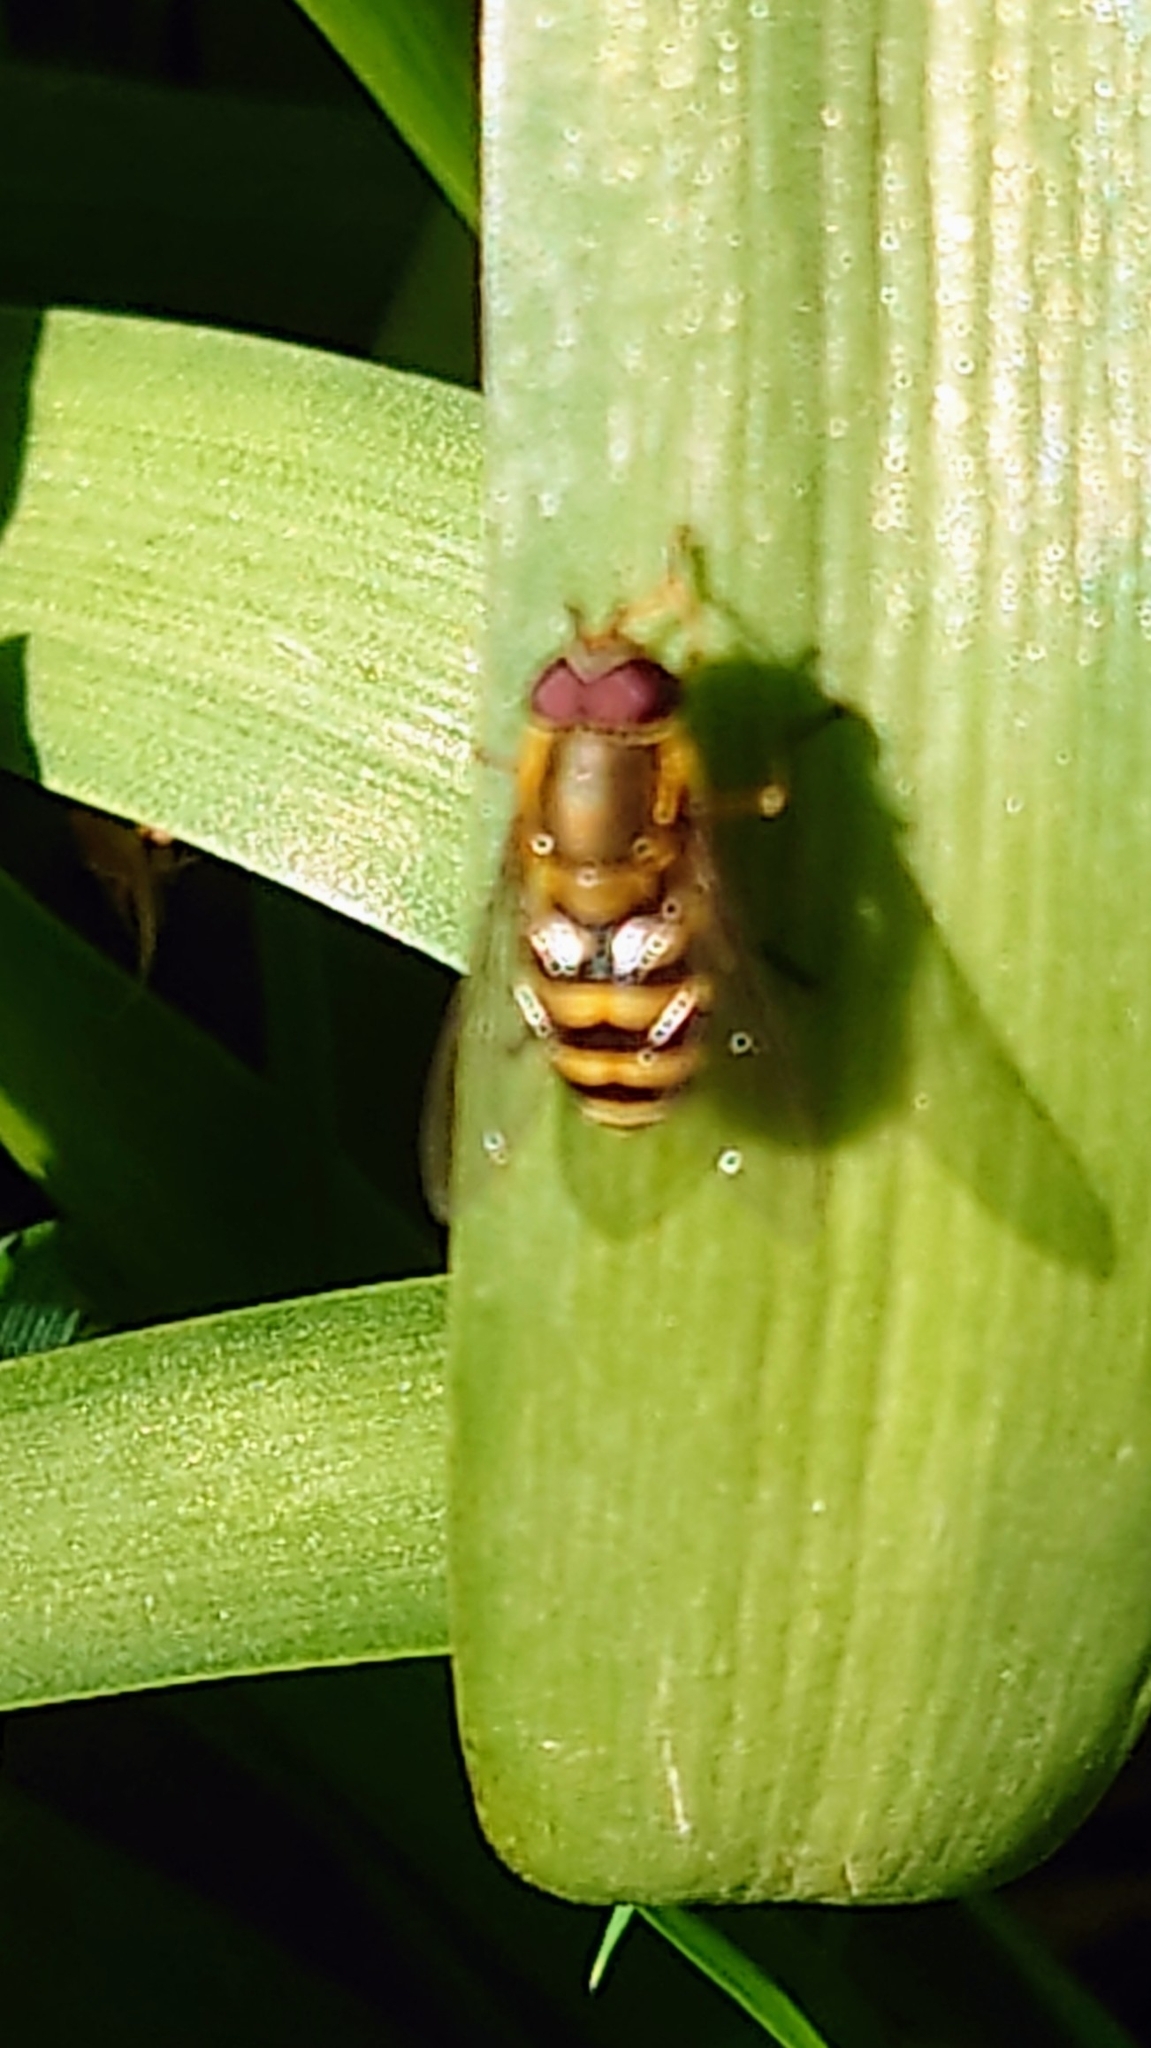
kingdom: Animalia
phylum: Arthropoda
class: Insecta
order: Diptera
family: Syrphidae
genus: Syrphus
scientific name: Syrphus
